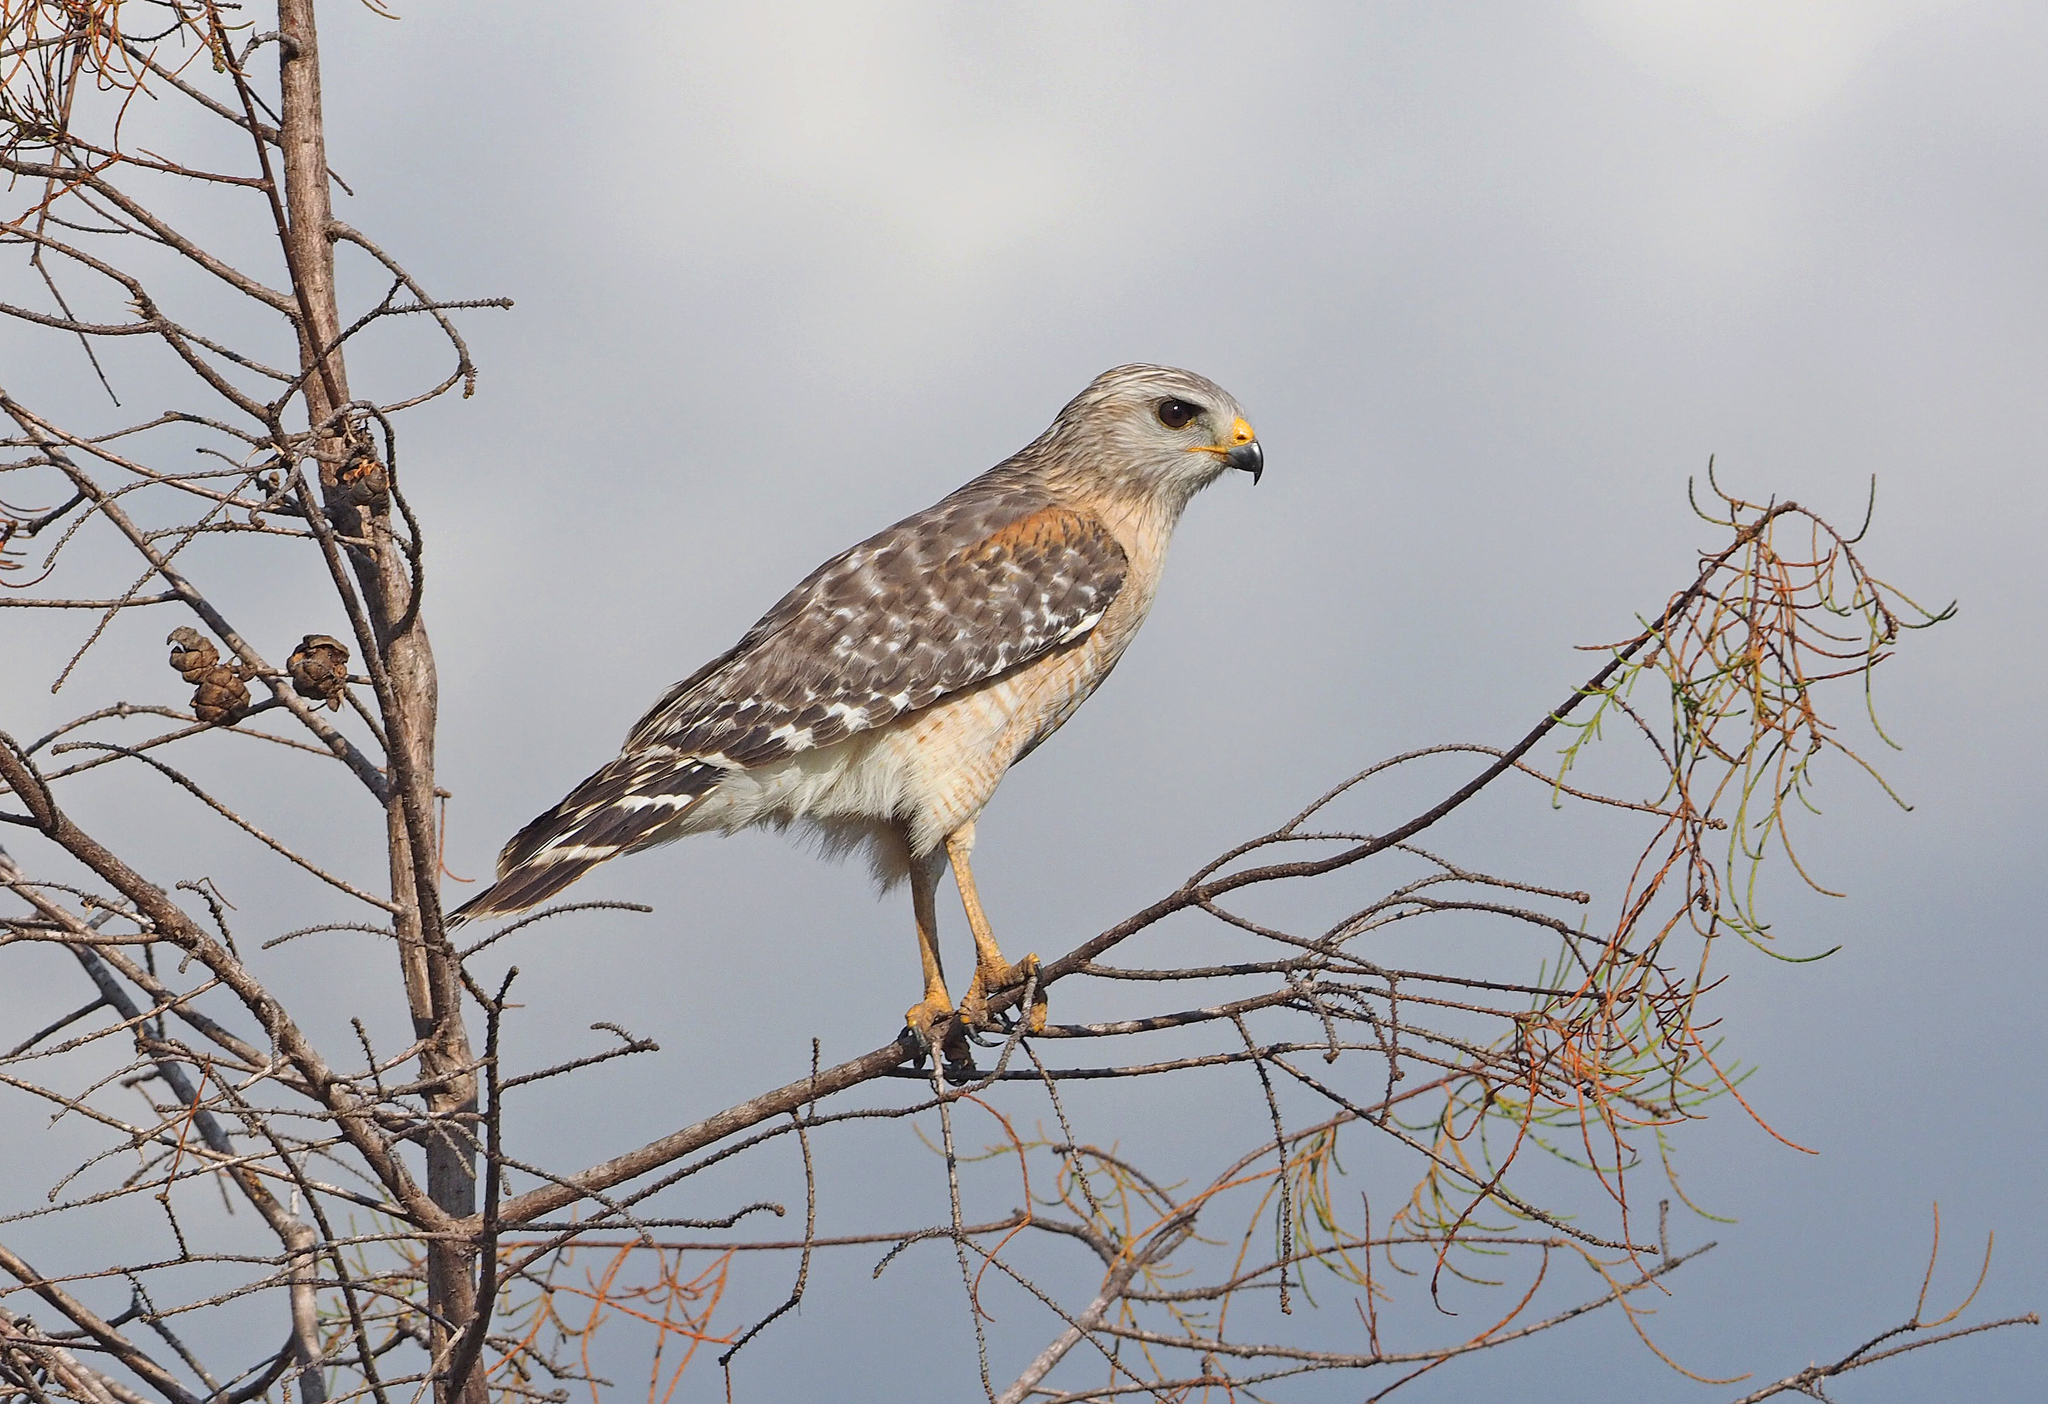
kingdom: Animalia
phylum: Chordata
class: Aves
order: Accipitriformes
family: Accipitridae
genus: Buteo
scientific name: Buteo lineatus
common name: Red-shouldered hawk
